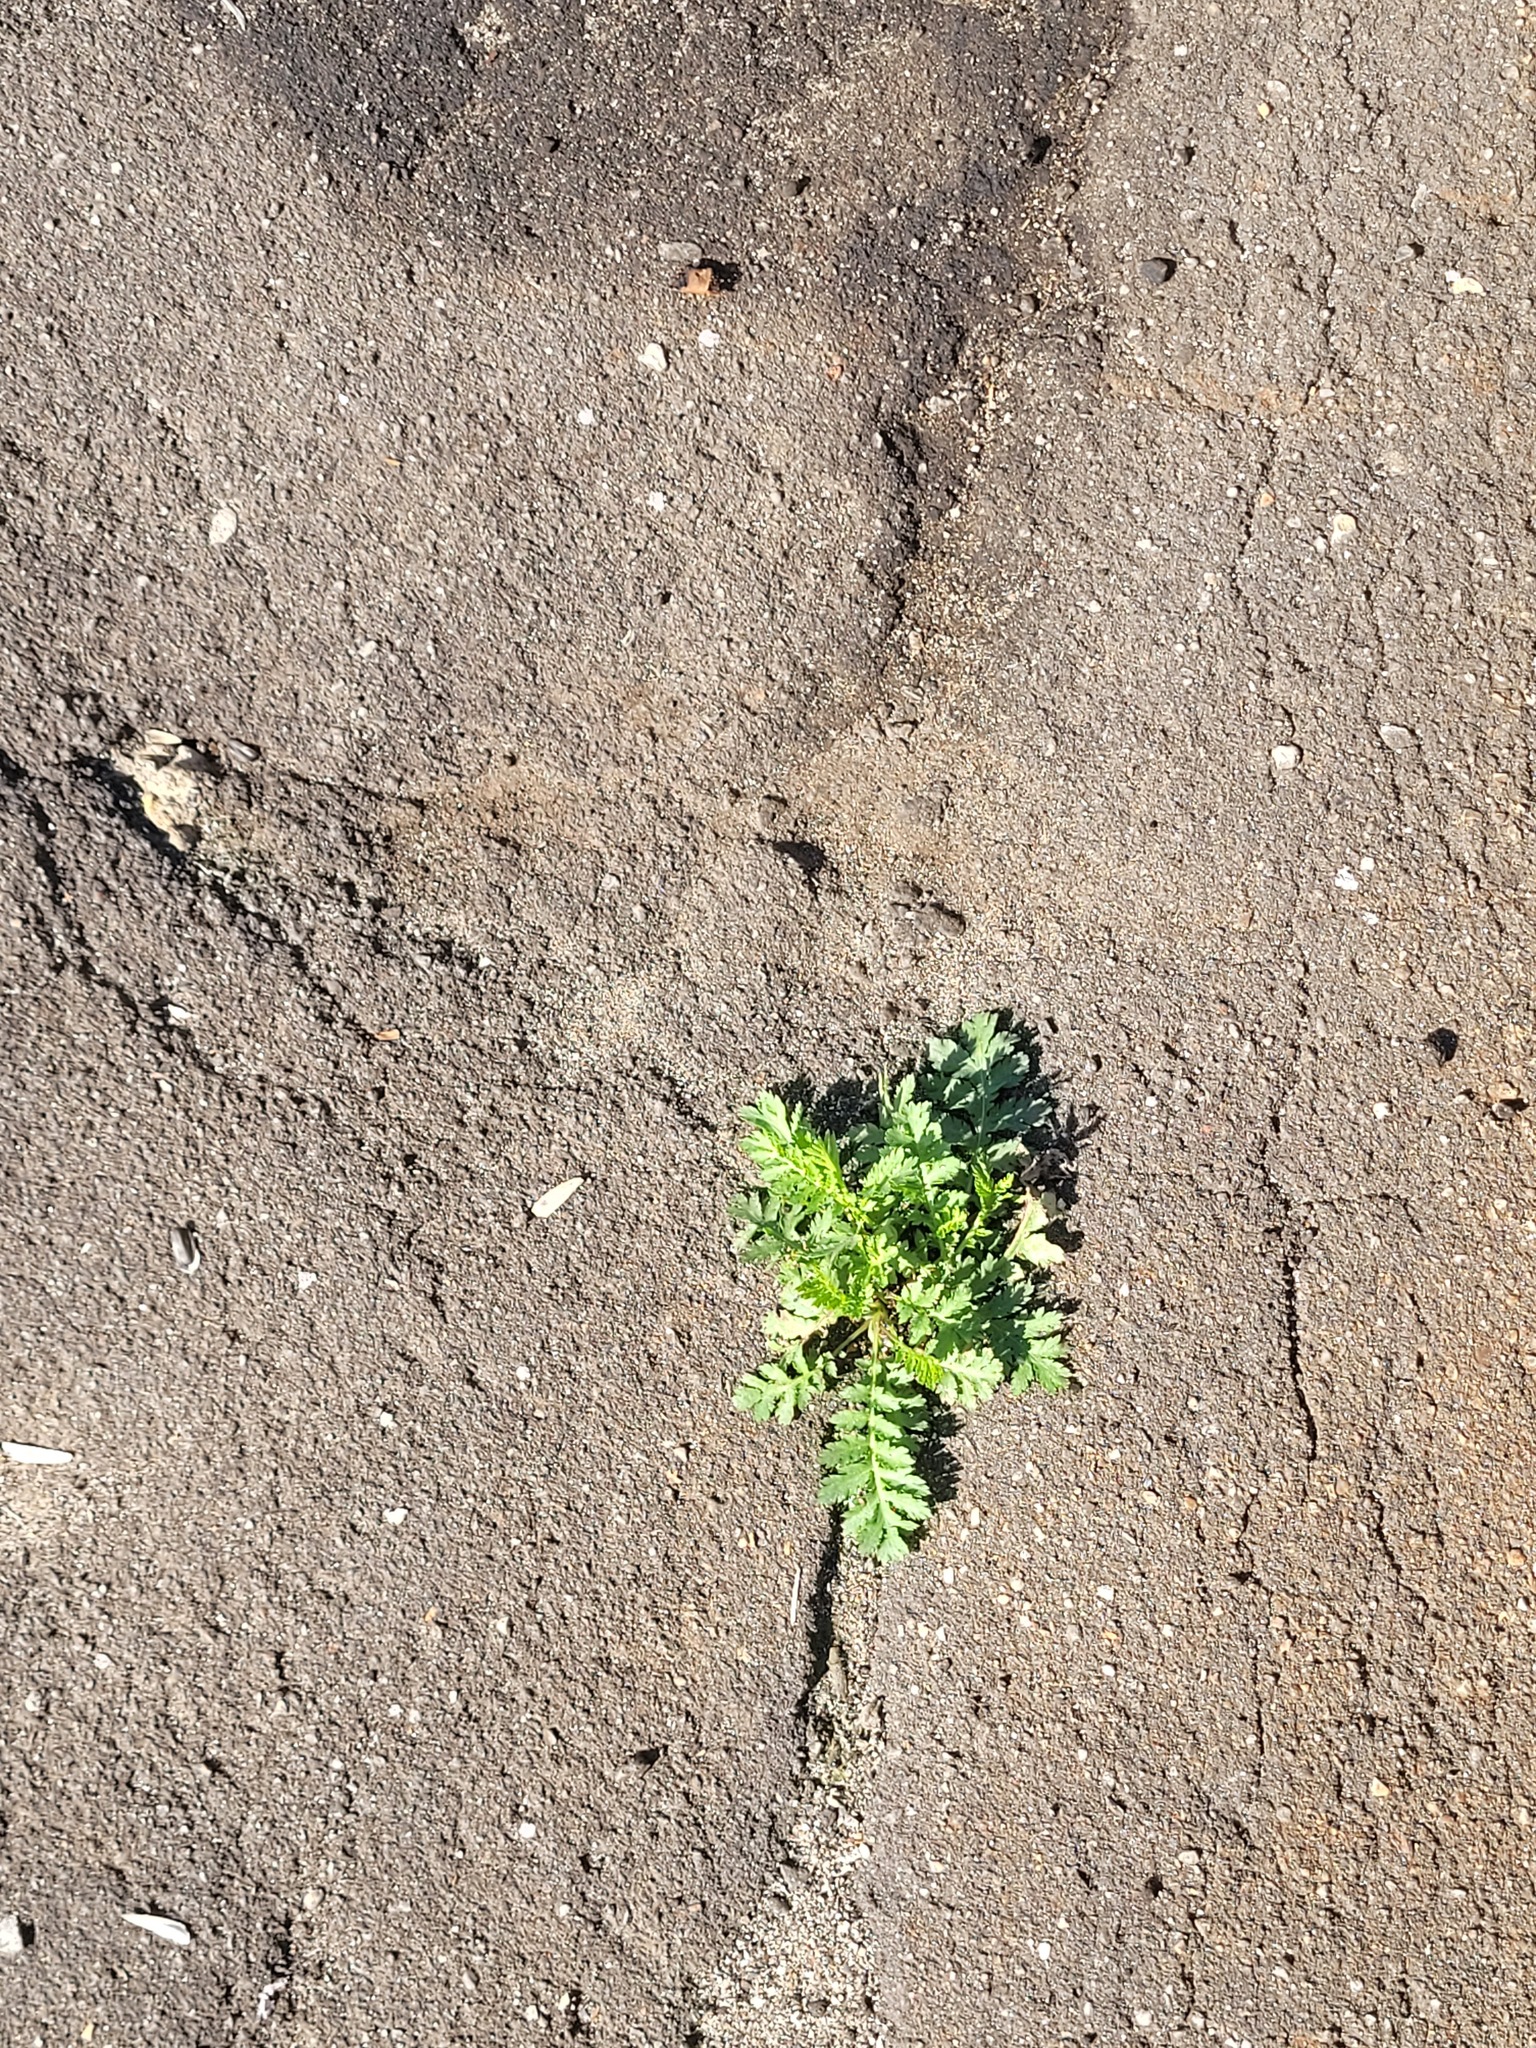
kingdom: Plantae
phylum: Tracheophyta
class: Magnoliopsida
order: Asterales
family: Asteraceae
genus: Tanacetum
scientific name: Tanacetum vulgare
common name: Common tansy
